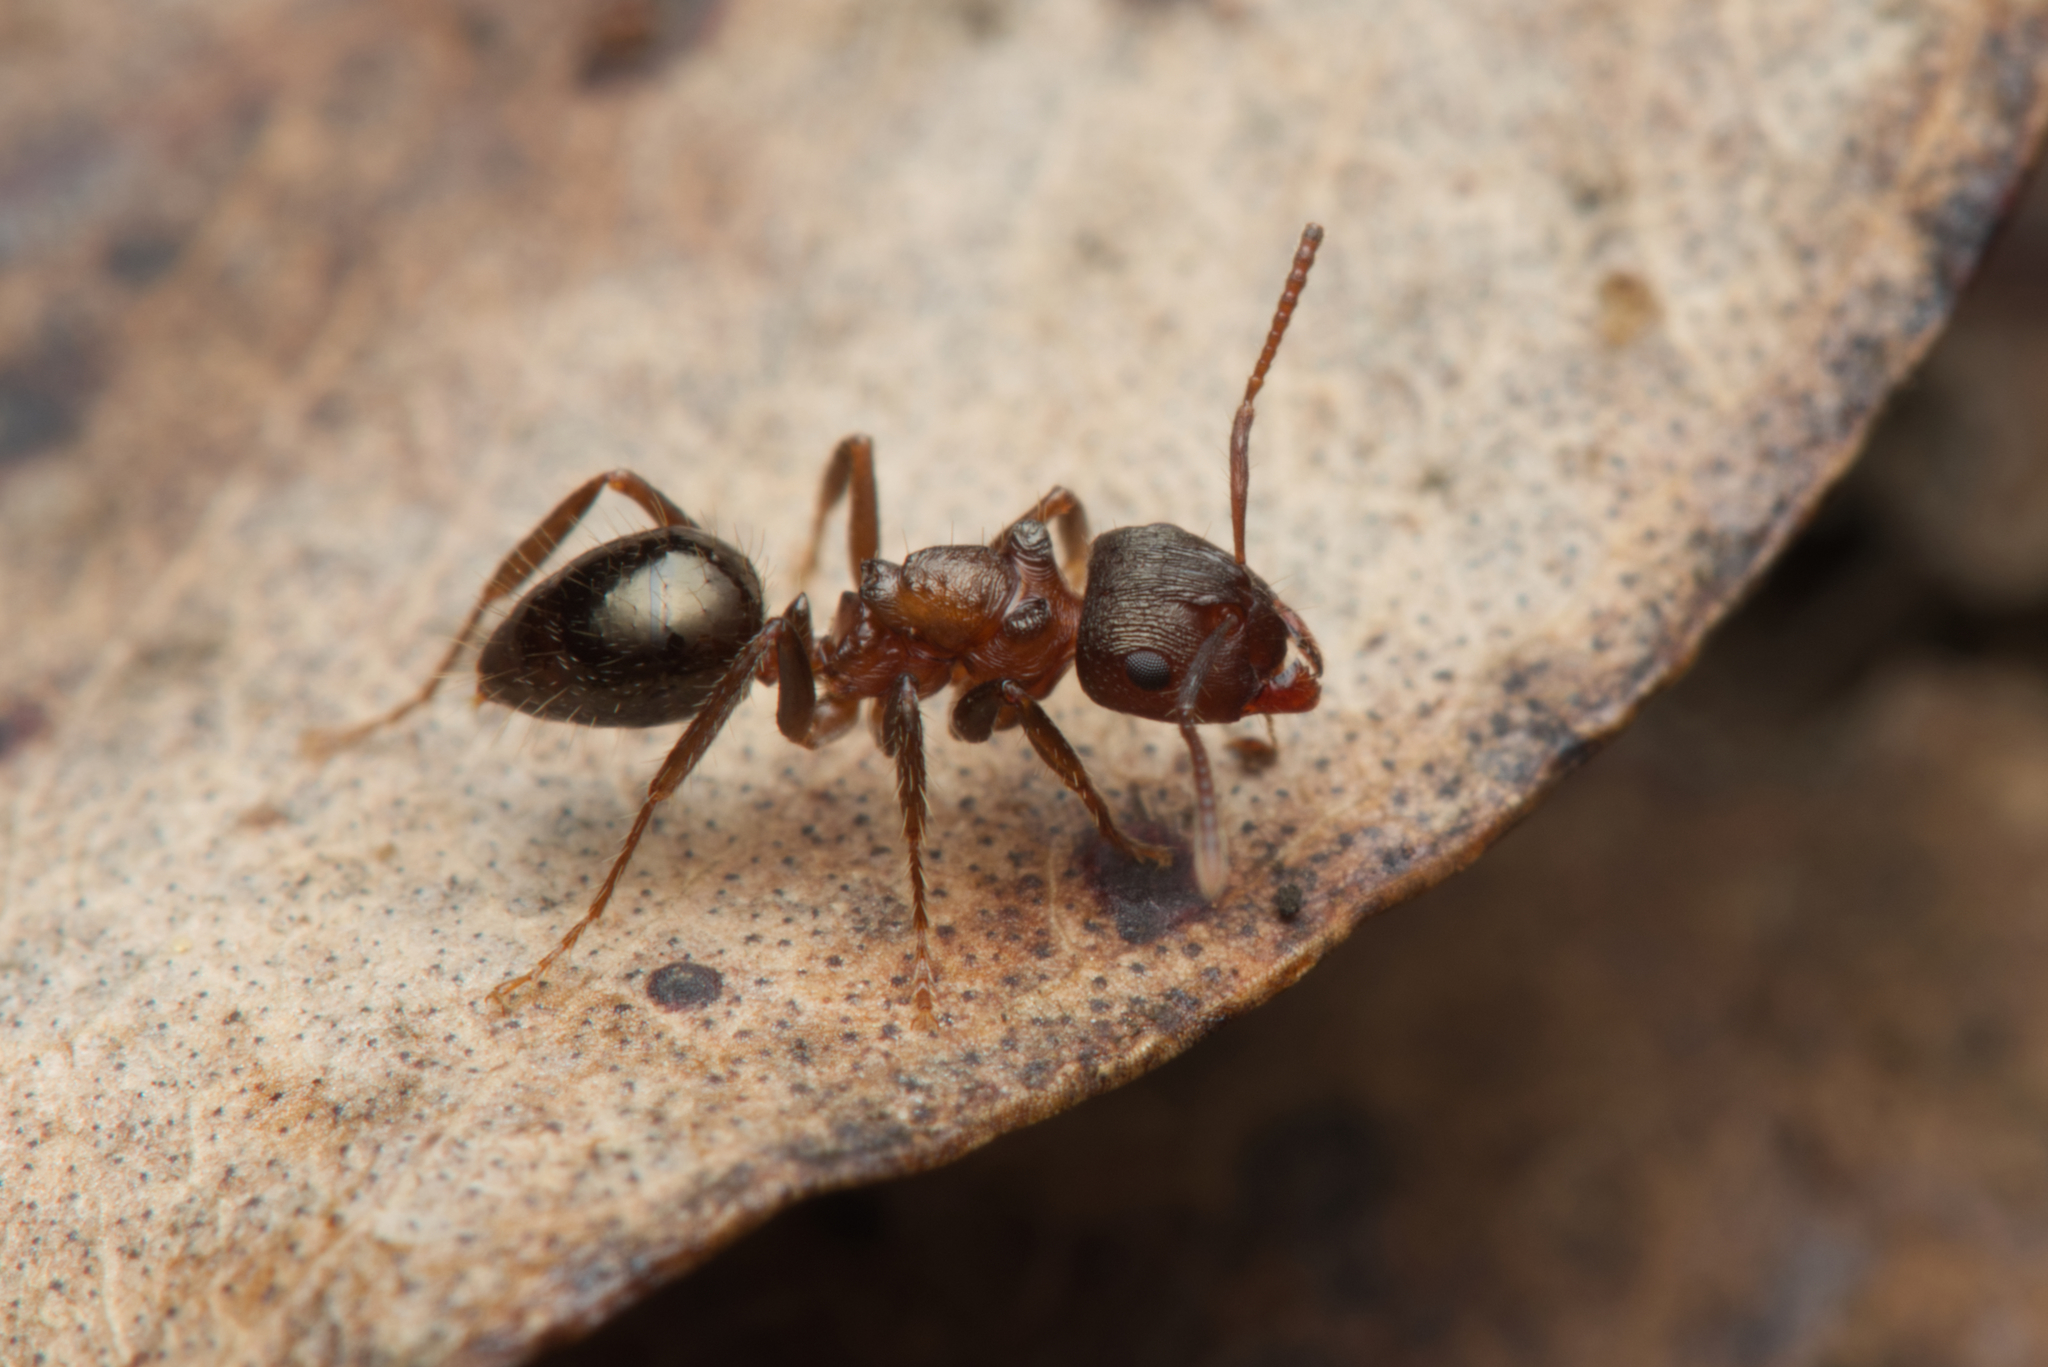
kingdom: Animalia
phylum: Arthropoda
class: Insecta
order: Hymenoptera
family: Formicidae
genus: Notoncus
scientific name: Notoncus ectatommoides
